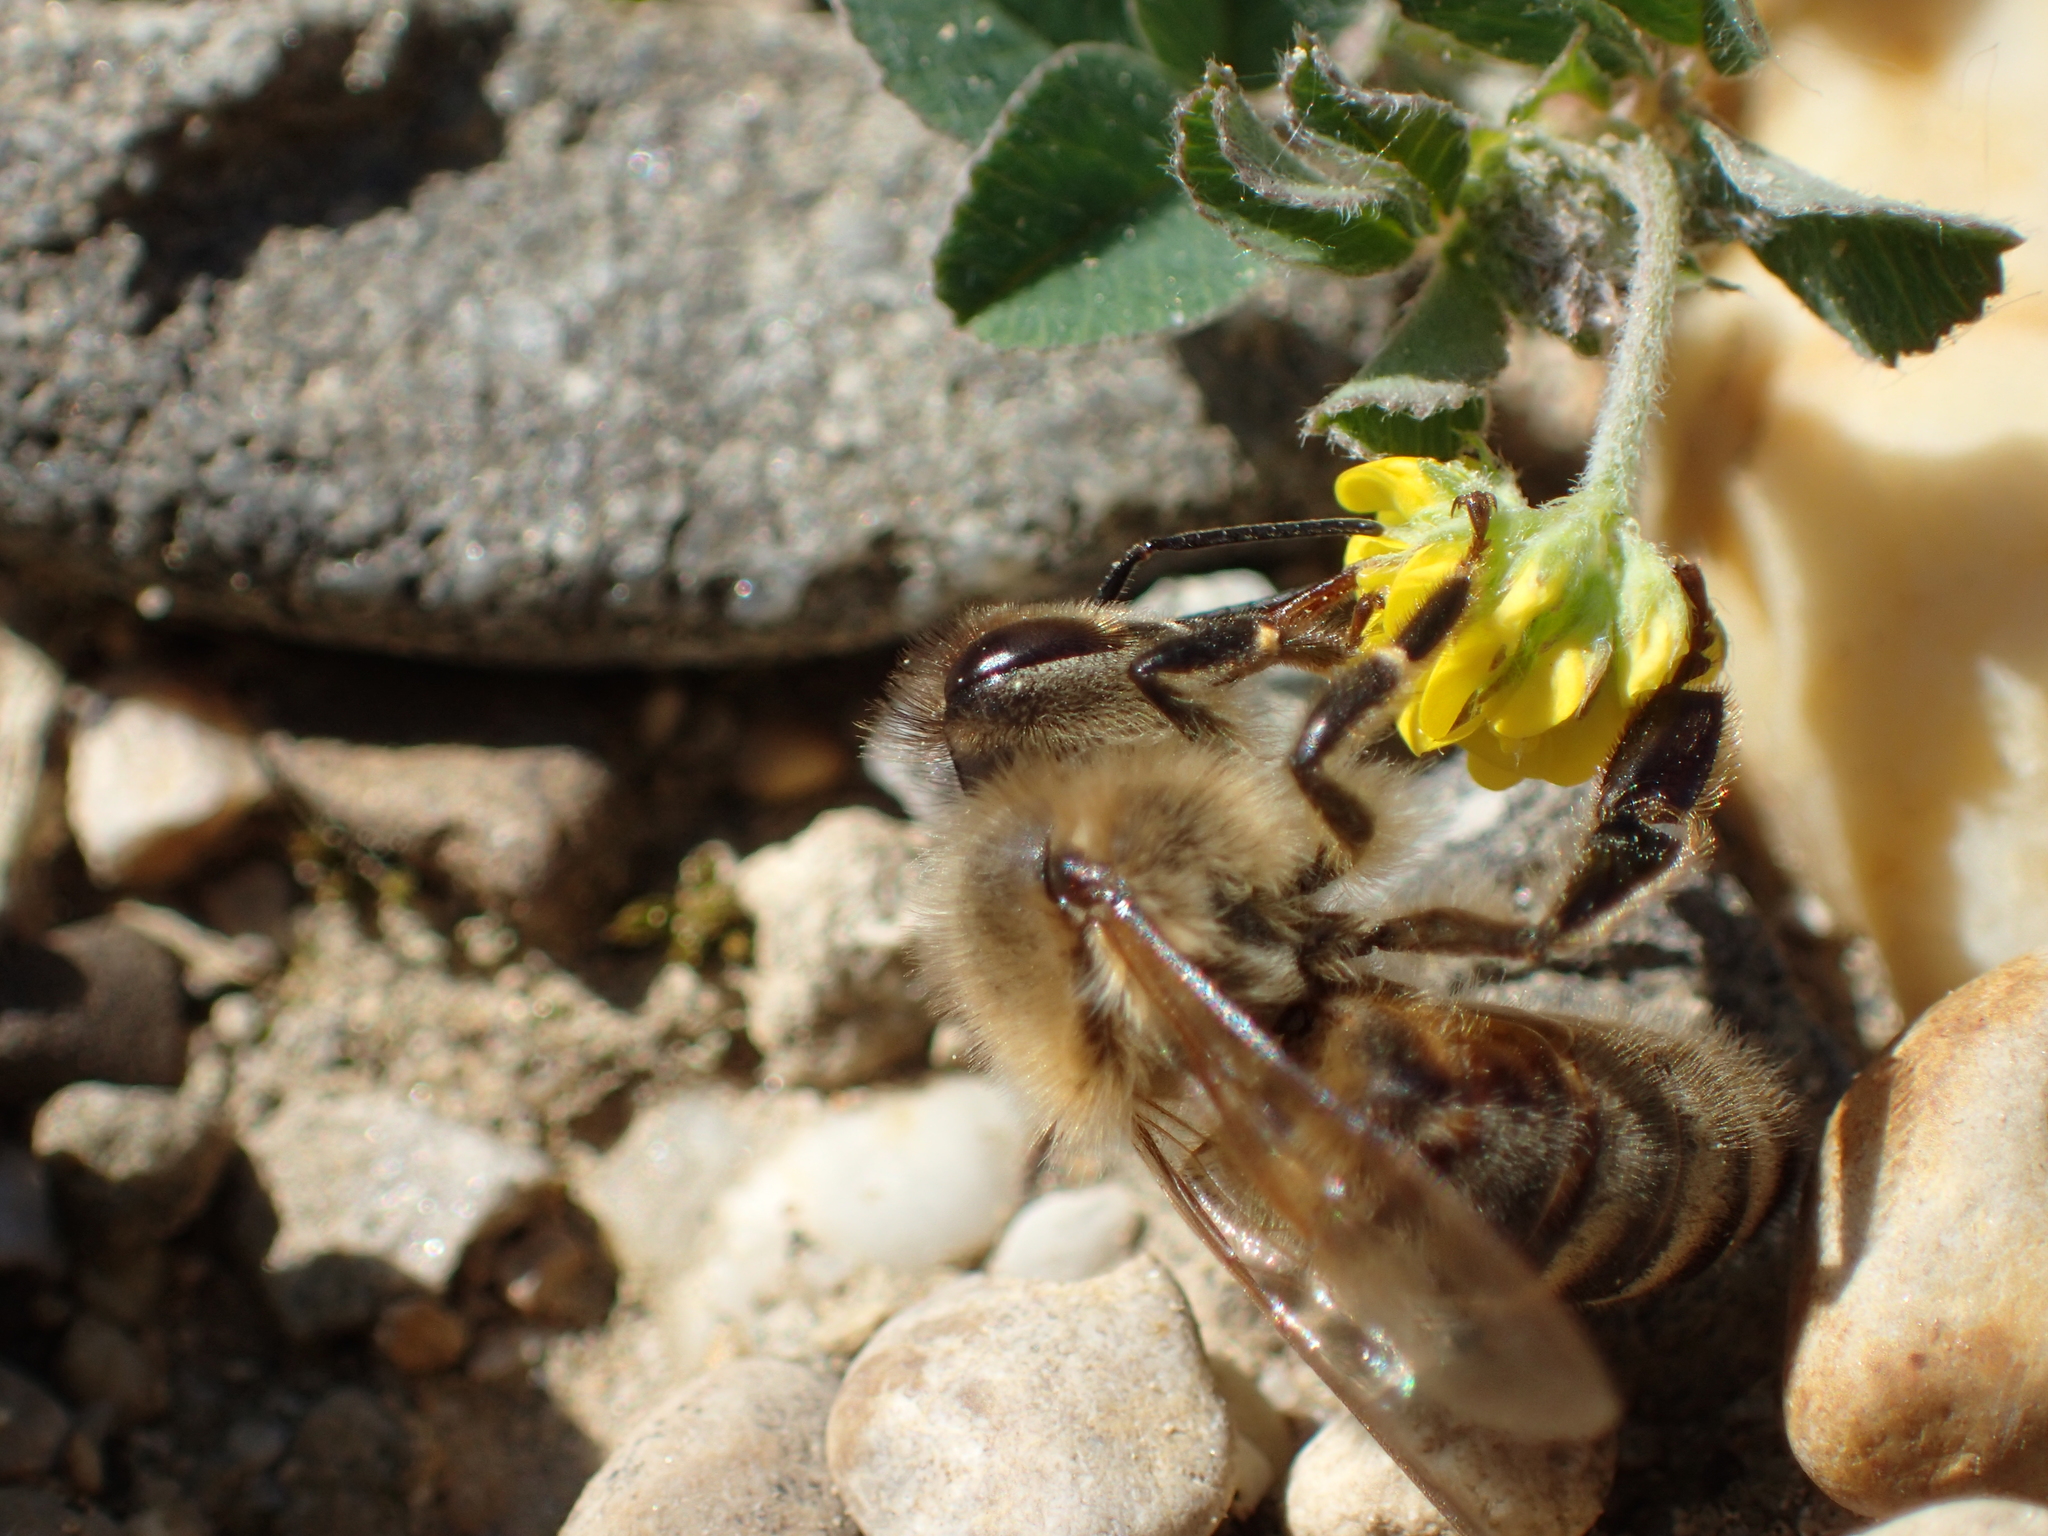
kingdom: Animalia
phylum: Arthropoda
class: Insecta
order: Hymenoptera
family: Apidae
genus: Apis
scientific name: Apis mellifera
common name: Honey bee
